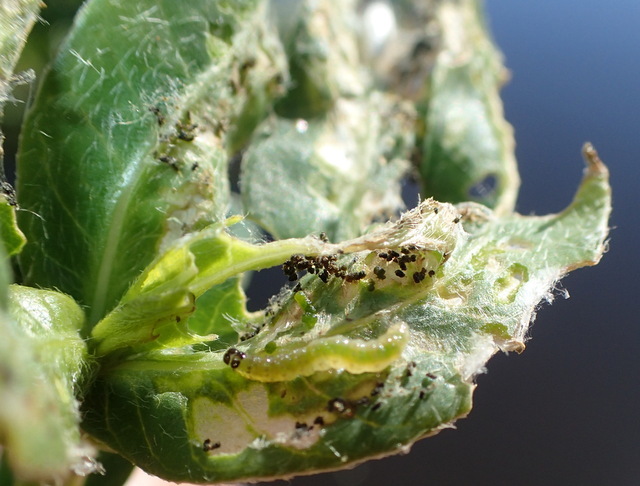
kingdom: Animalia
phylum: Arthropoda
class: Insecta
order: Lepidoptera
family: Crambidae
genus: Herpetogramma
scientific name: Herpetogramma bipunctalis
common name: Southern beet webworm
